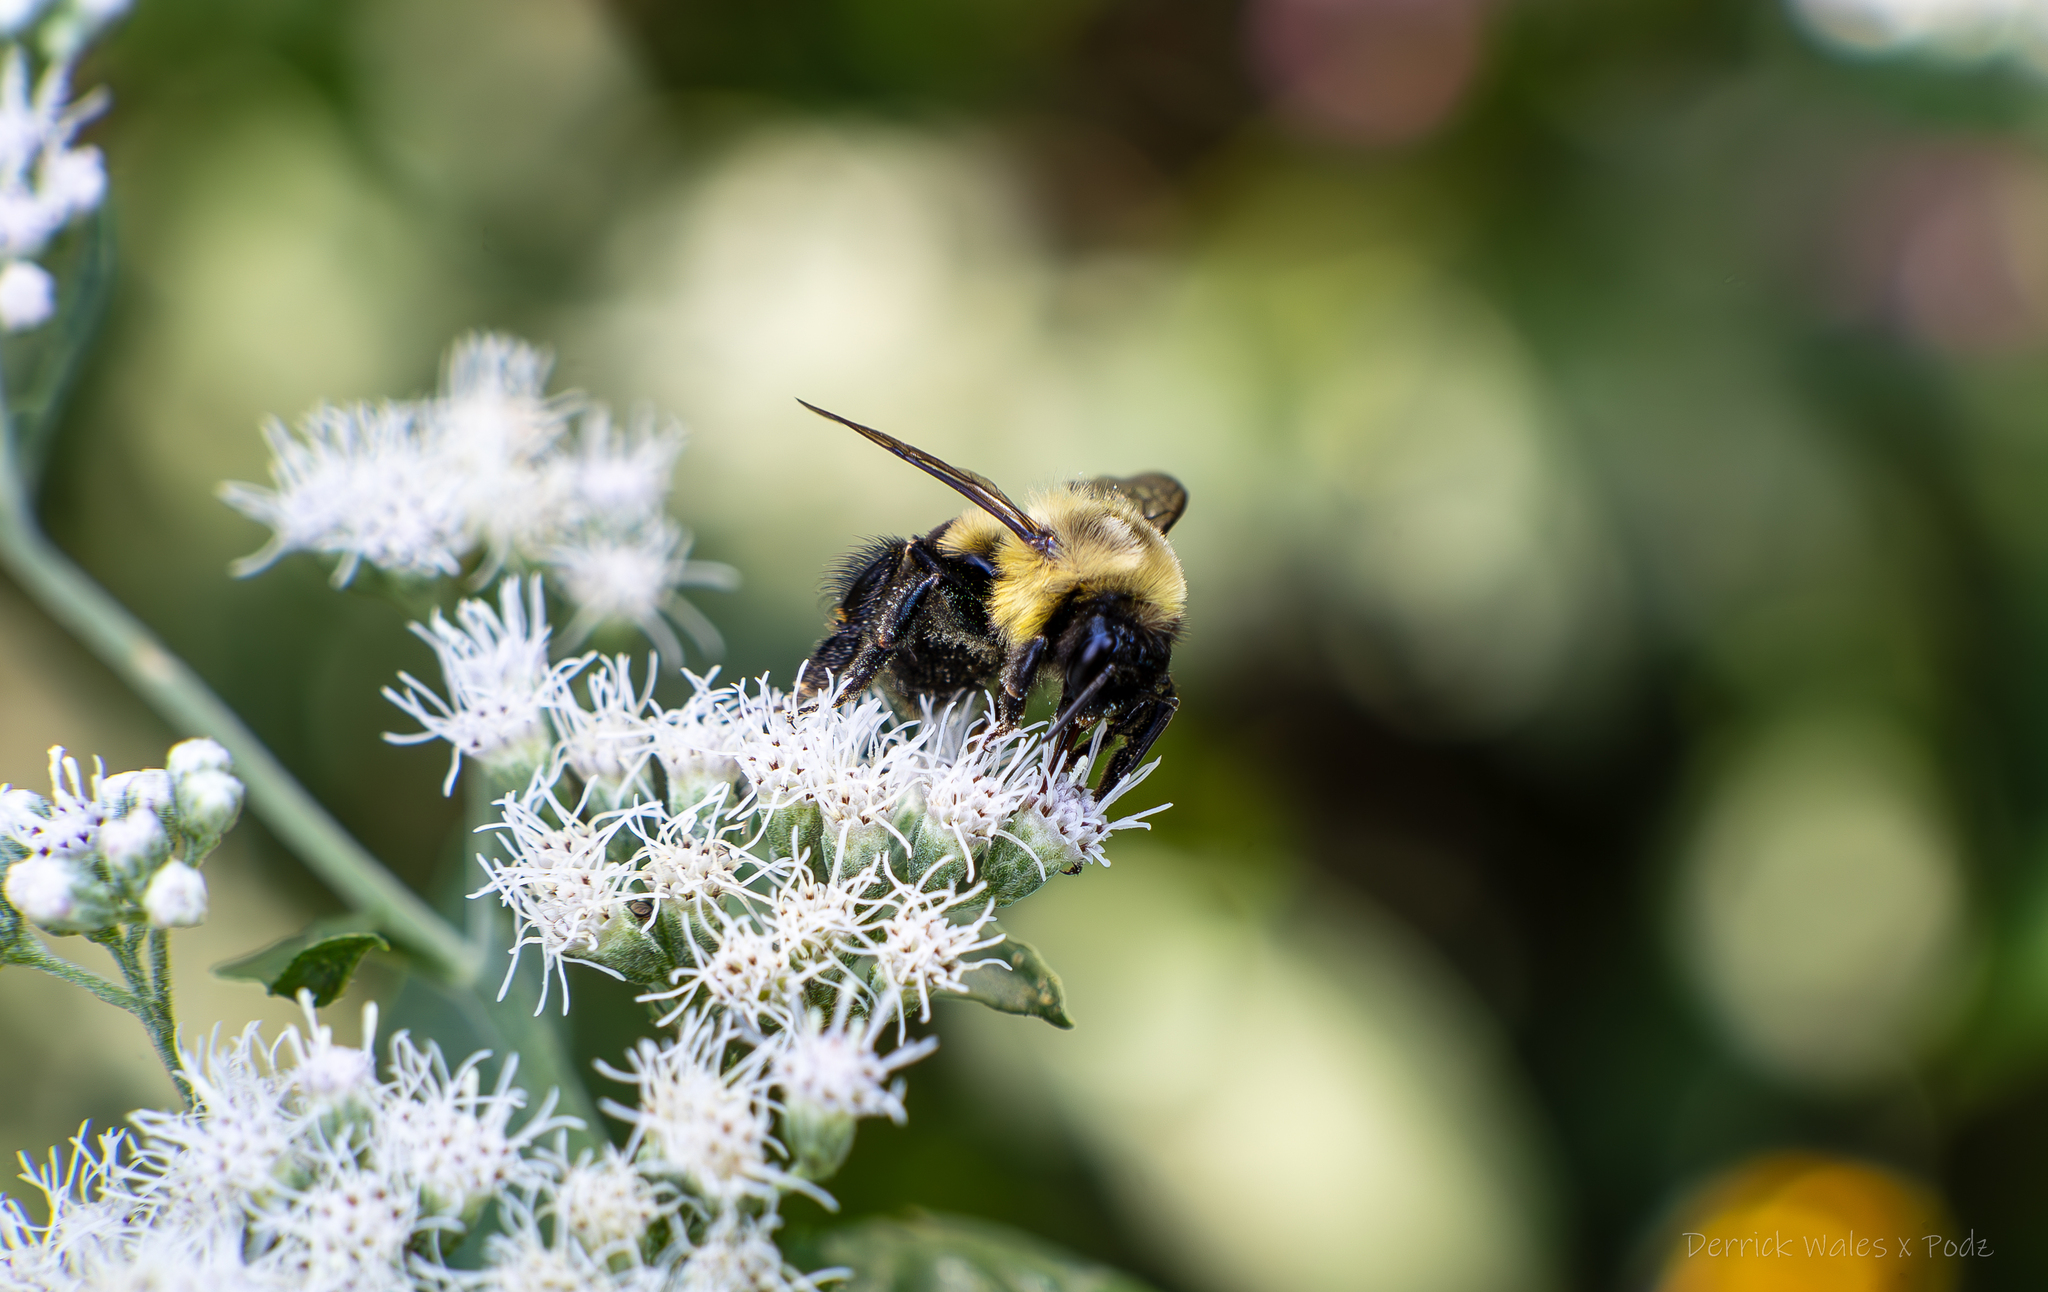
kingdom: Animalia
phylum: Arthropoda
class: Insecta
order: Hymenoptera
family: Apidae
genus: Bombus
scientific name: Bombus impatiens
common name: Common eastern bumble bee
